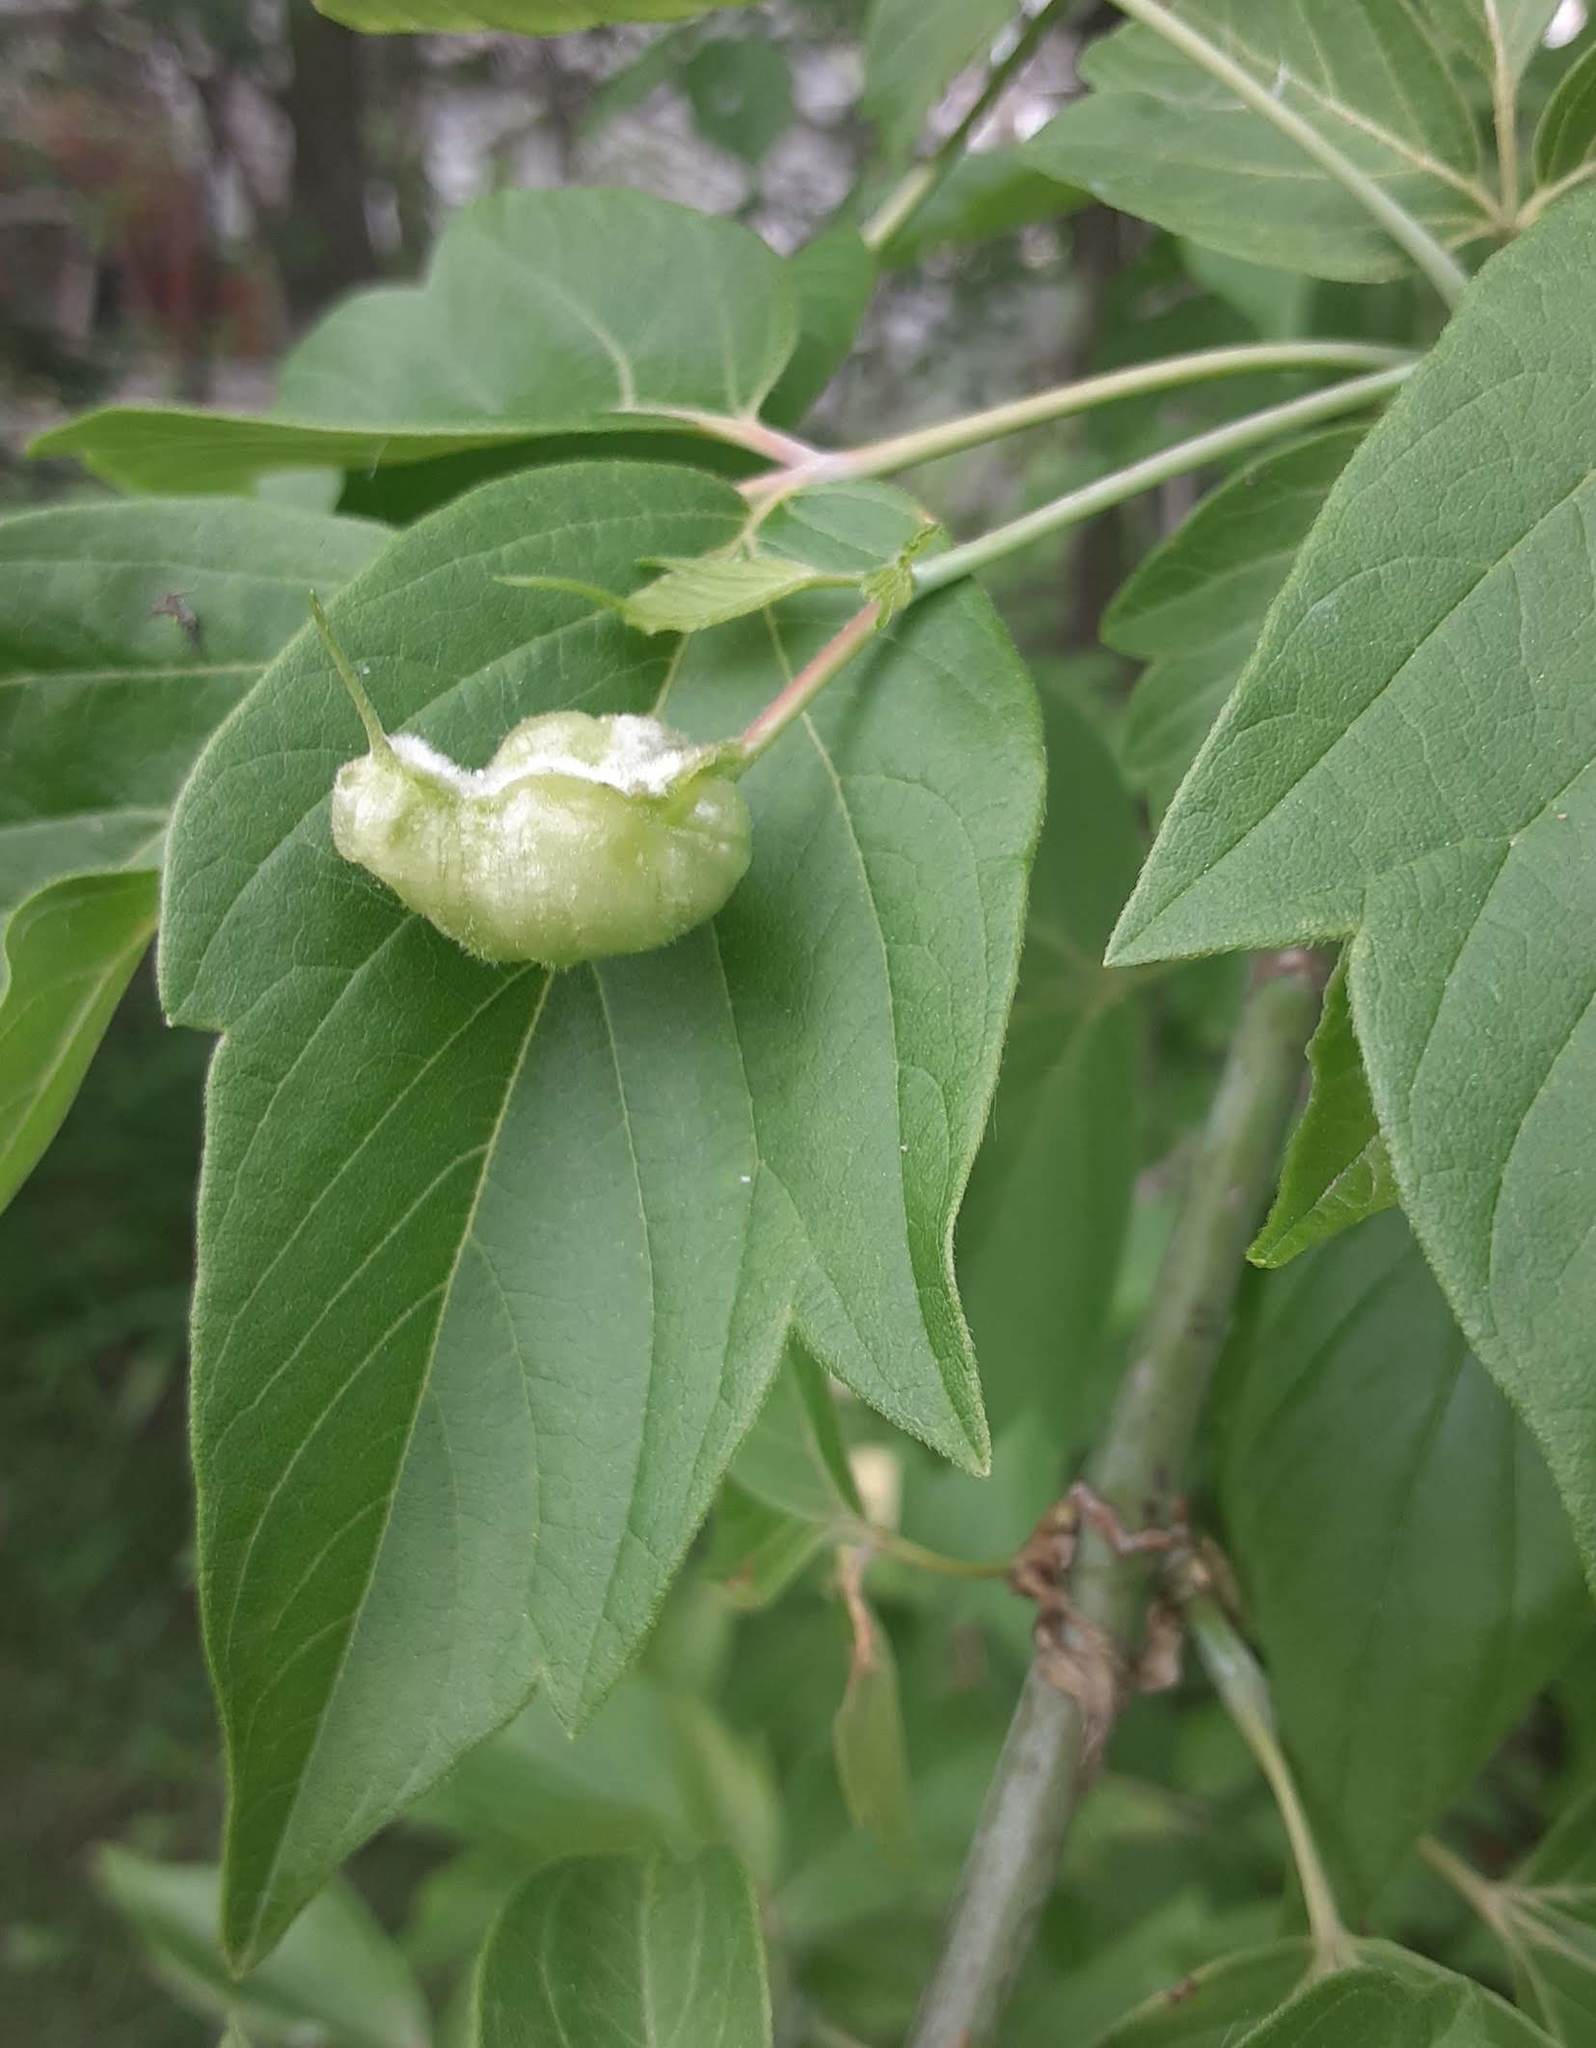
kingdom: Animalia
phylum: Arthropoda
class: Insecta
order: Diptera
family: Cecidomyiidae
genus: Contarinia
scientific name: Contarinia negundinis
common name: Boxelder budgall midge
